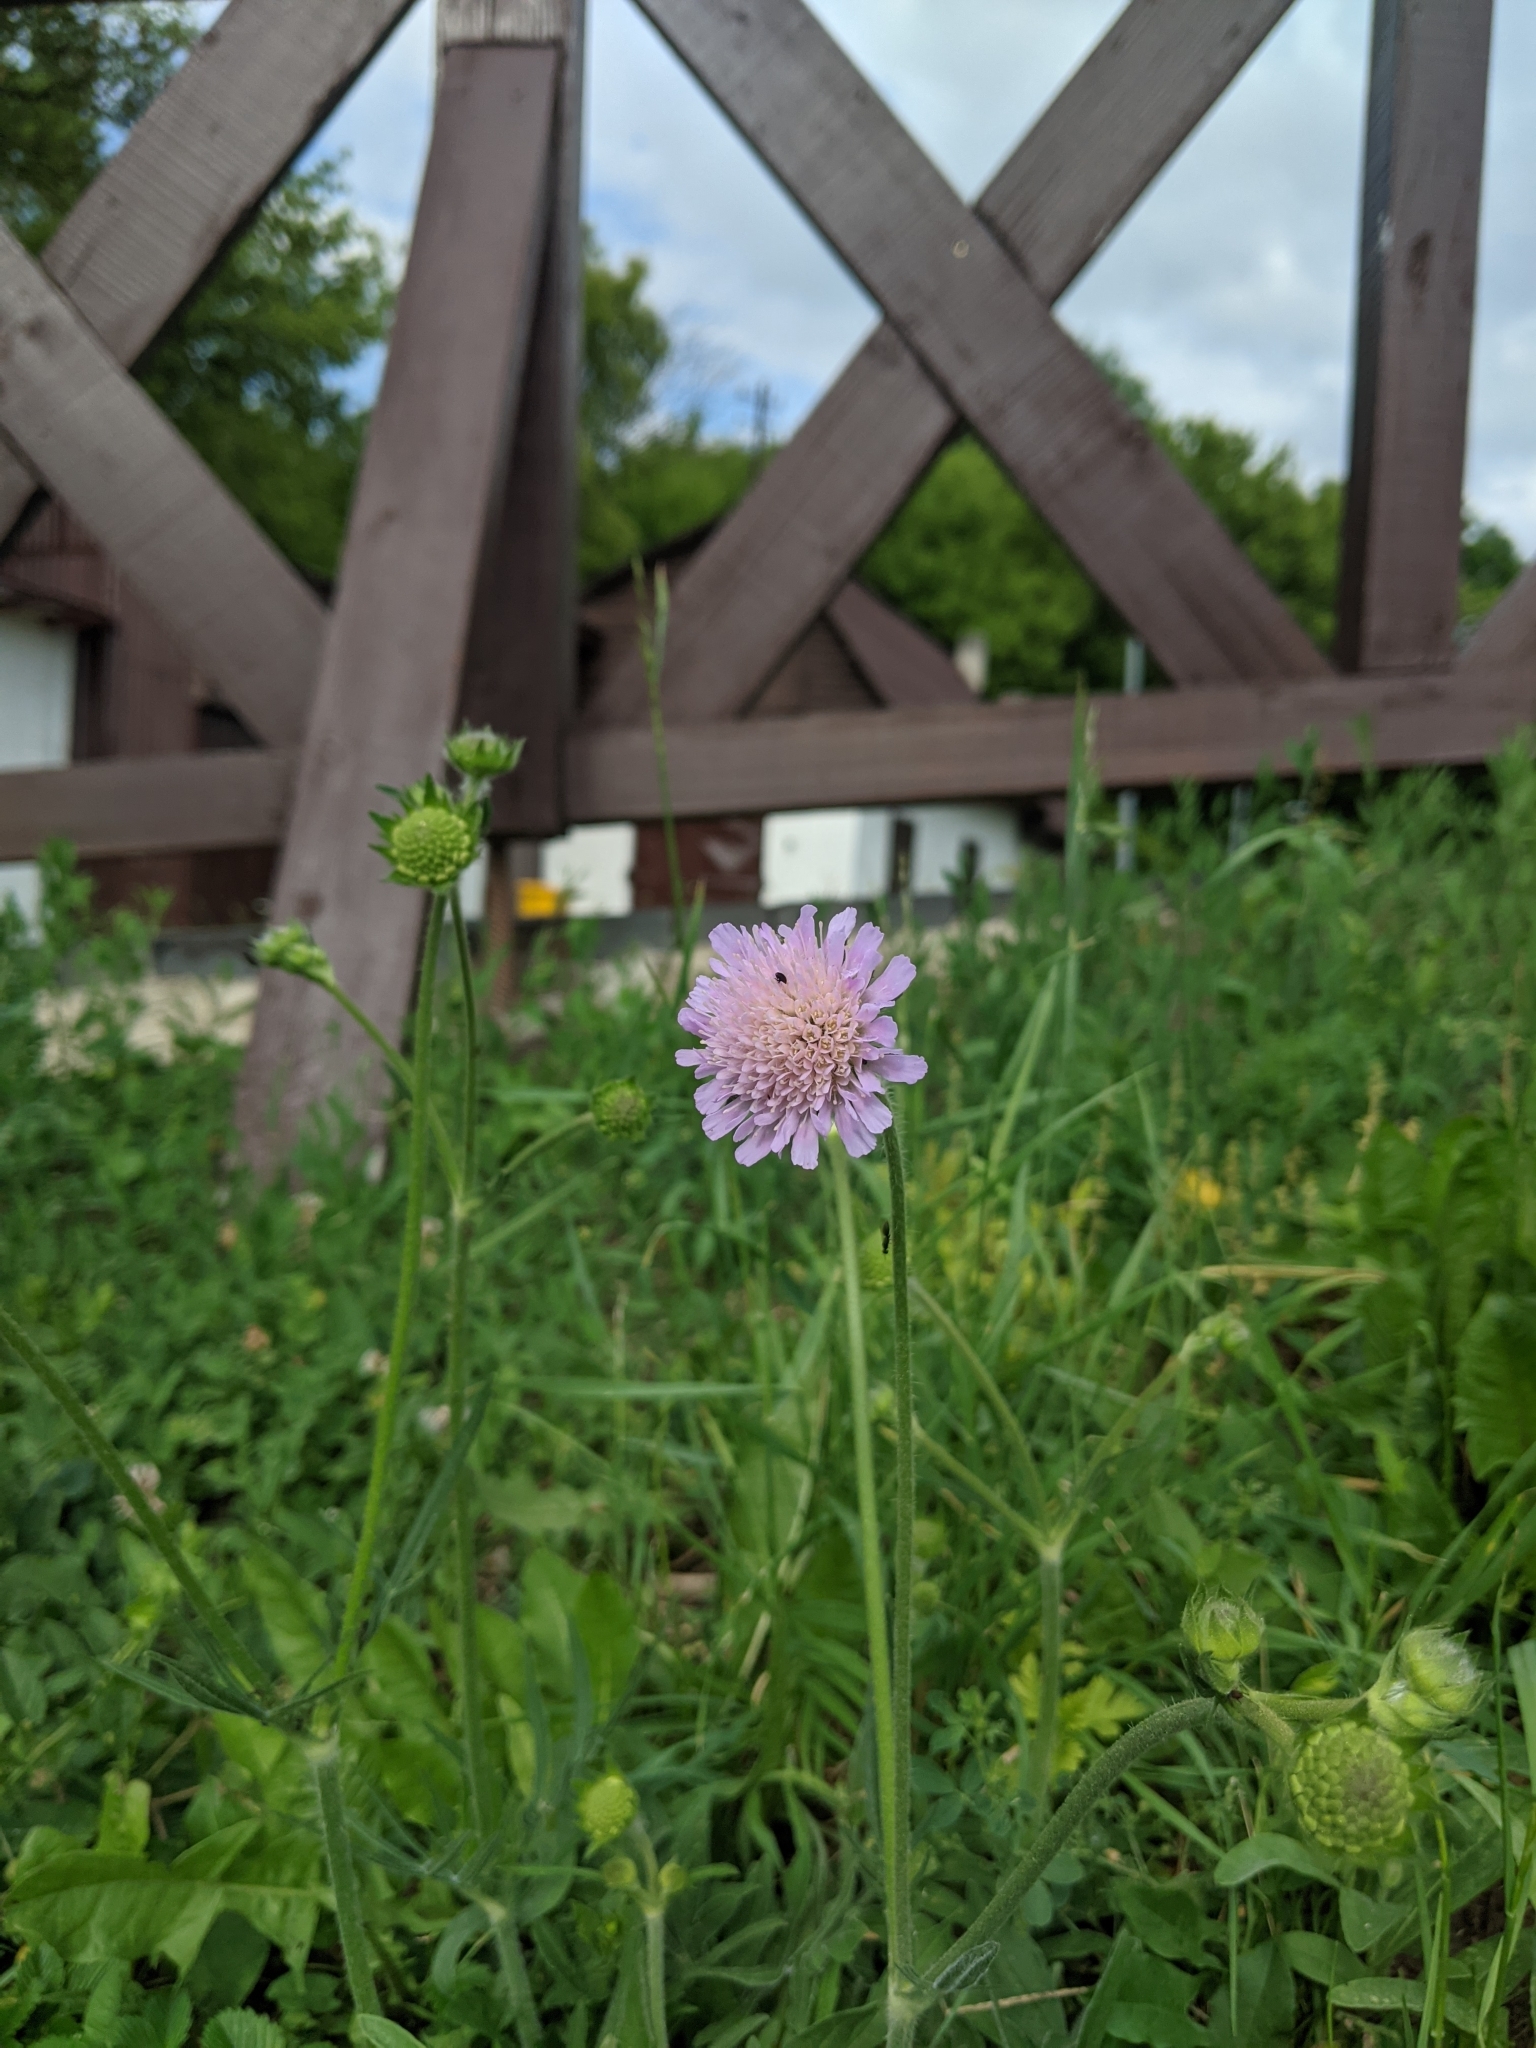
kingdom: Plantae
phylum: Tracheophyta
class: Magnoliopsida
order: Dipsacales
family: Caprifoliaceae
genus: Knautia
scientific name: Knautia arvensis
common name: Field scabiosa
